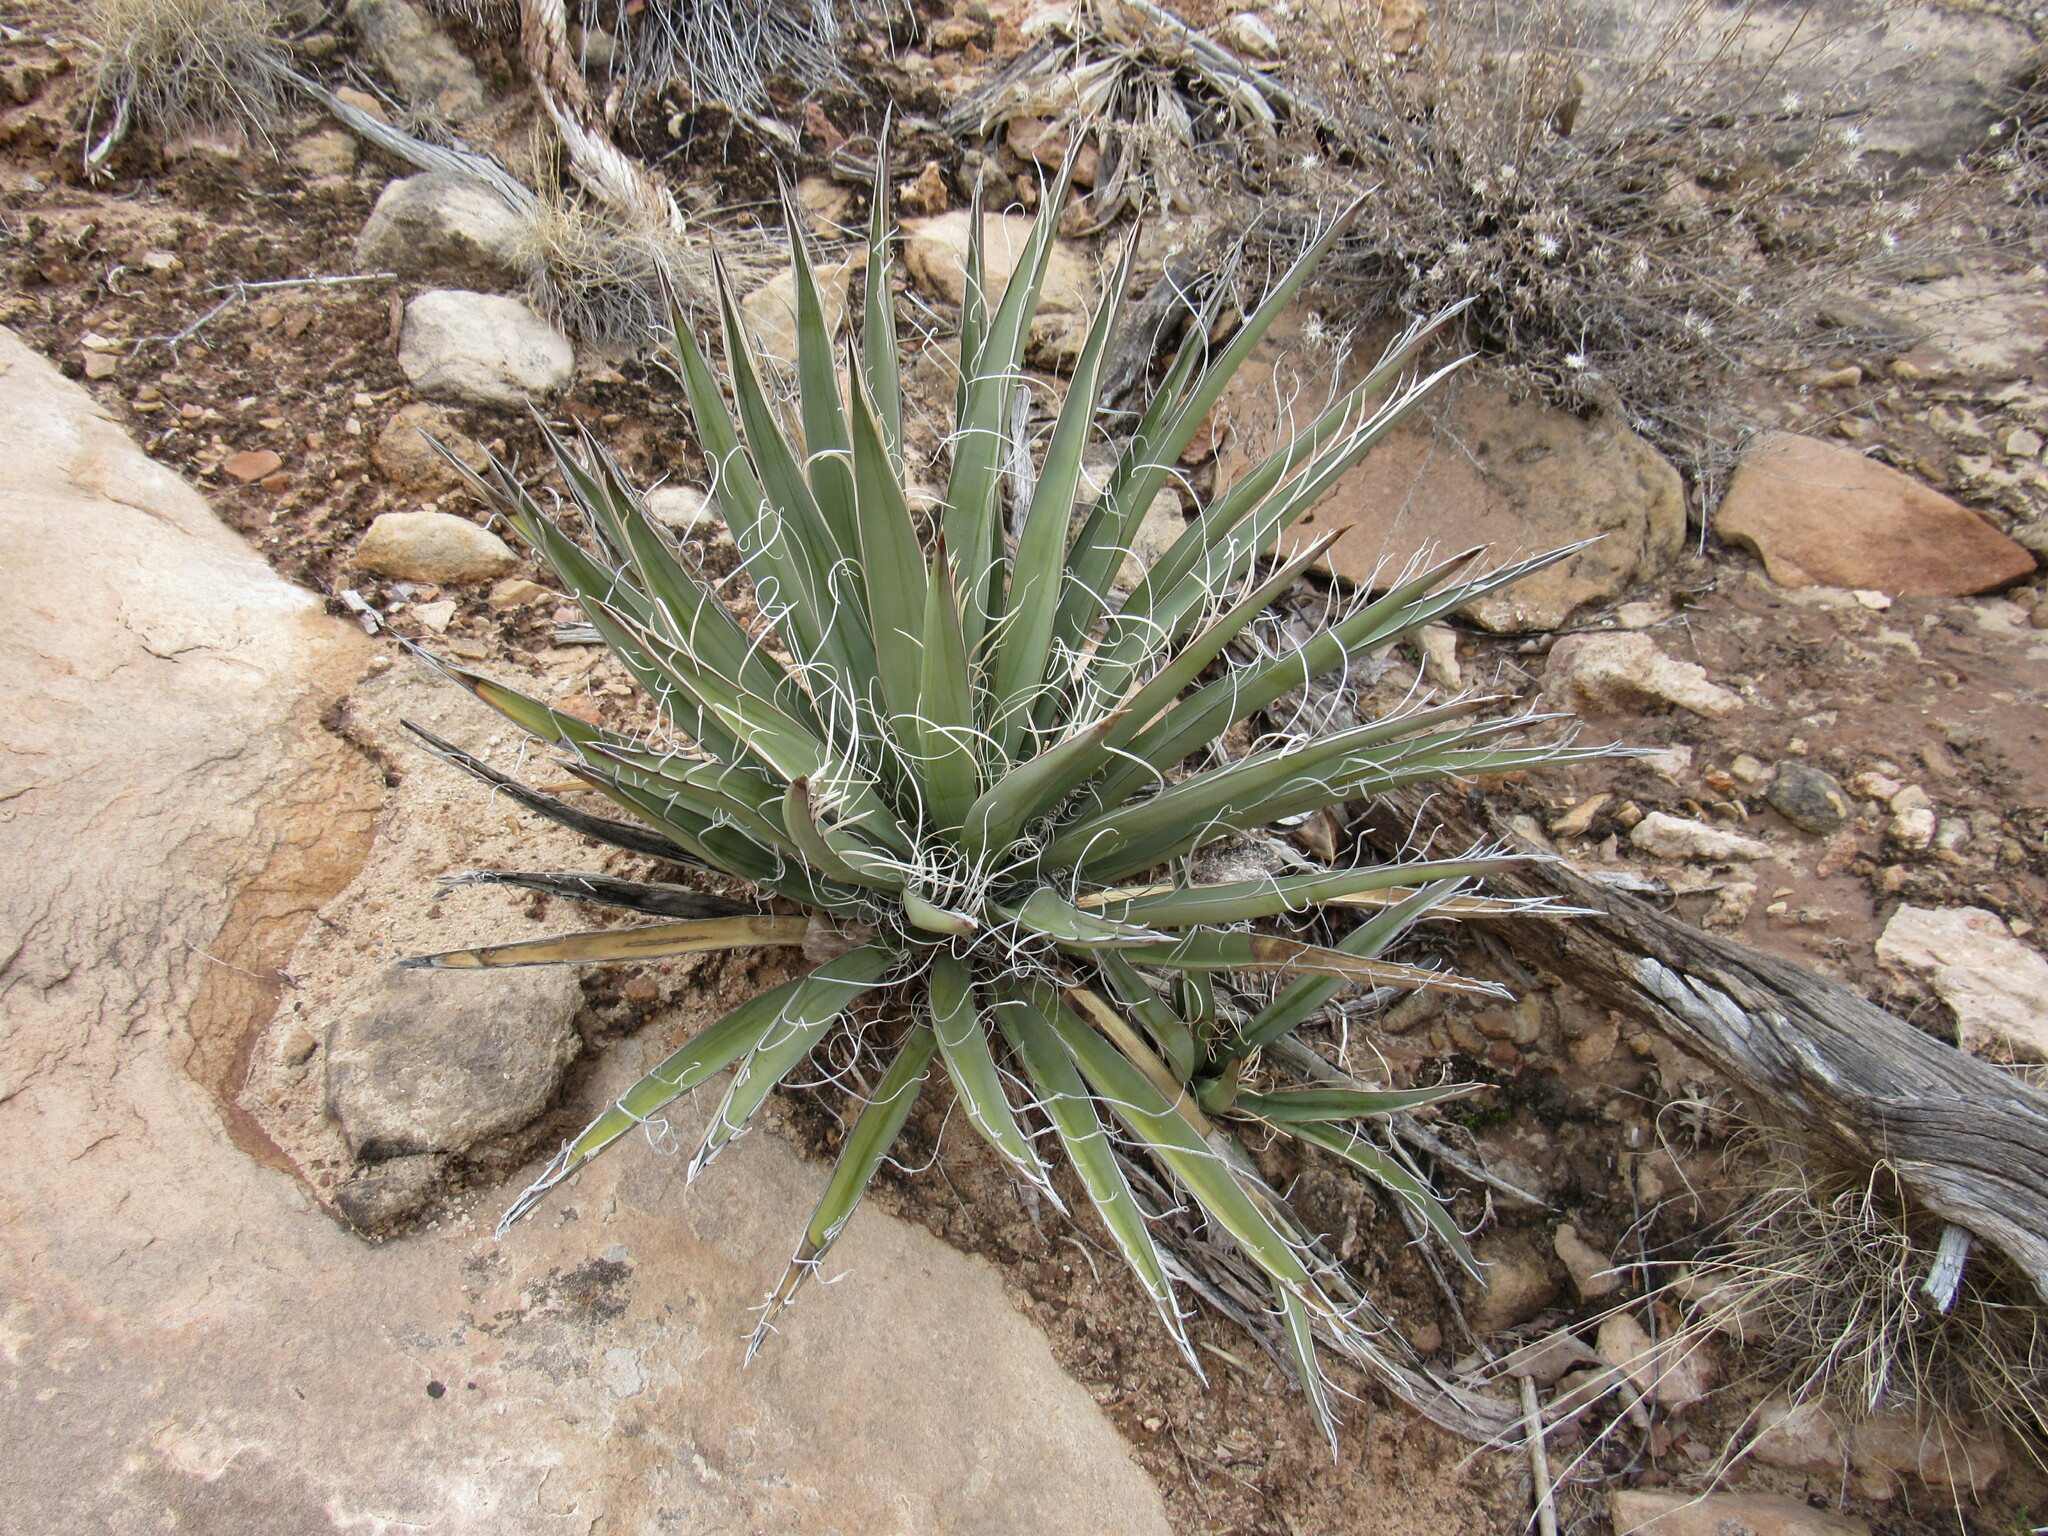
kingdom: Plantae
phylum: Tracheophyta
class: Liliopsida
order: Asparagales
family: Asparagaceae
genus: Yucca
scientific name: Yucca baccata
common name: Banana yucca
